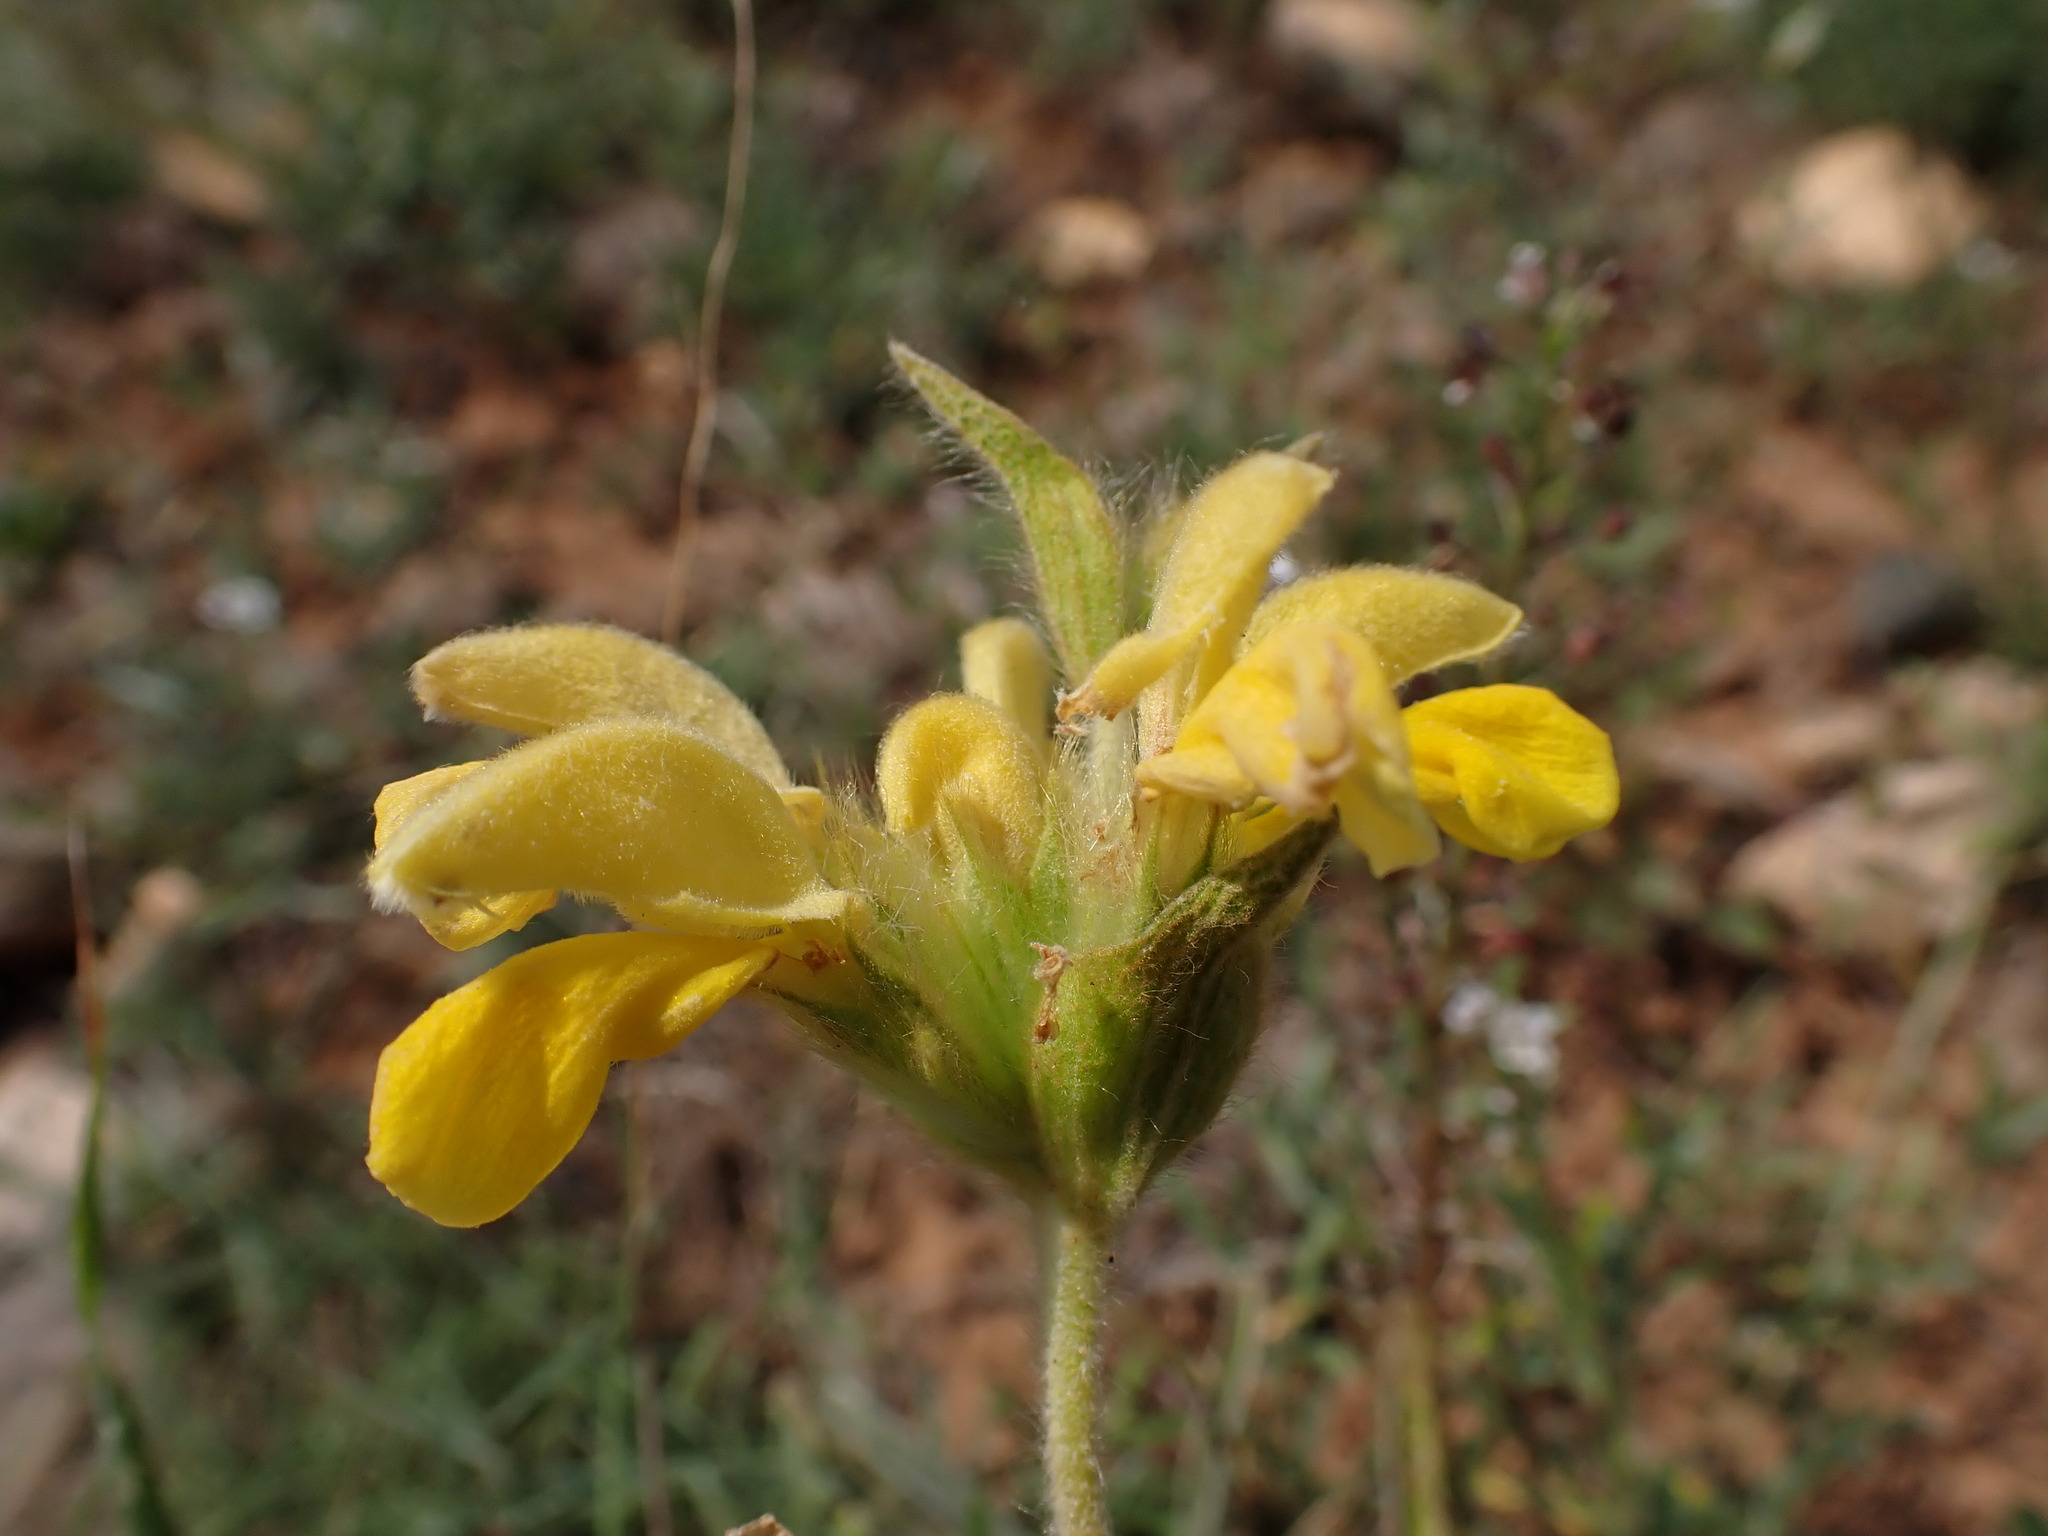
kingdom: Plantae
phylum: Tracheophyta
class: Magnoliopsida
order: Lamiales
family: Lamiaceae
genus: Phlomis
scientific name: Phlomis lychnitis
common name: Lampwickplant
